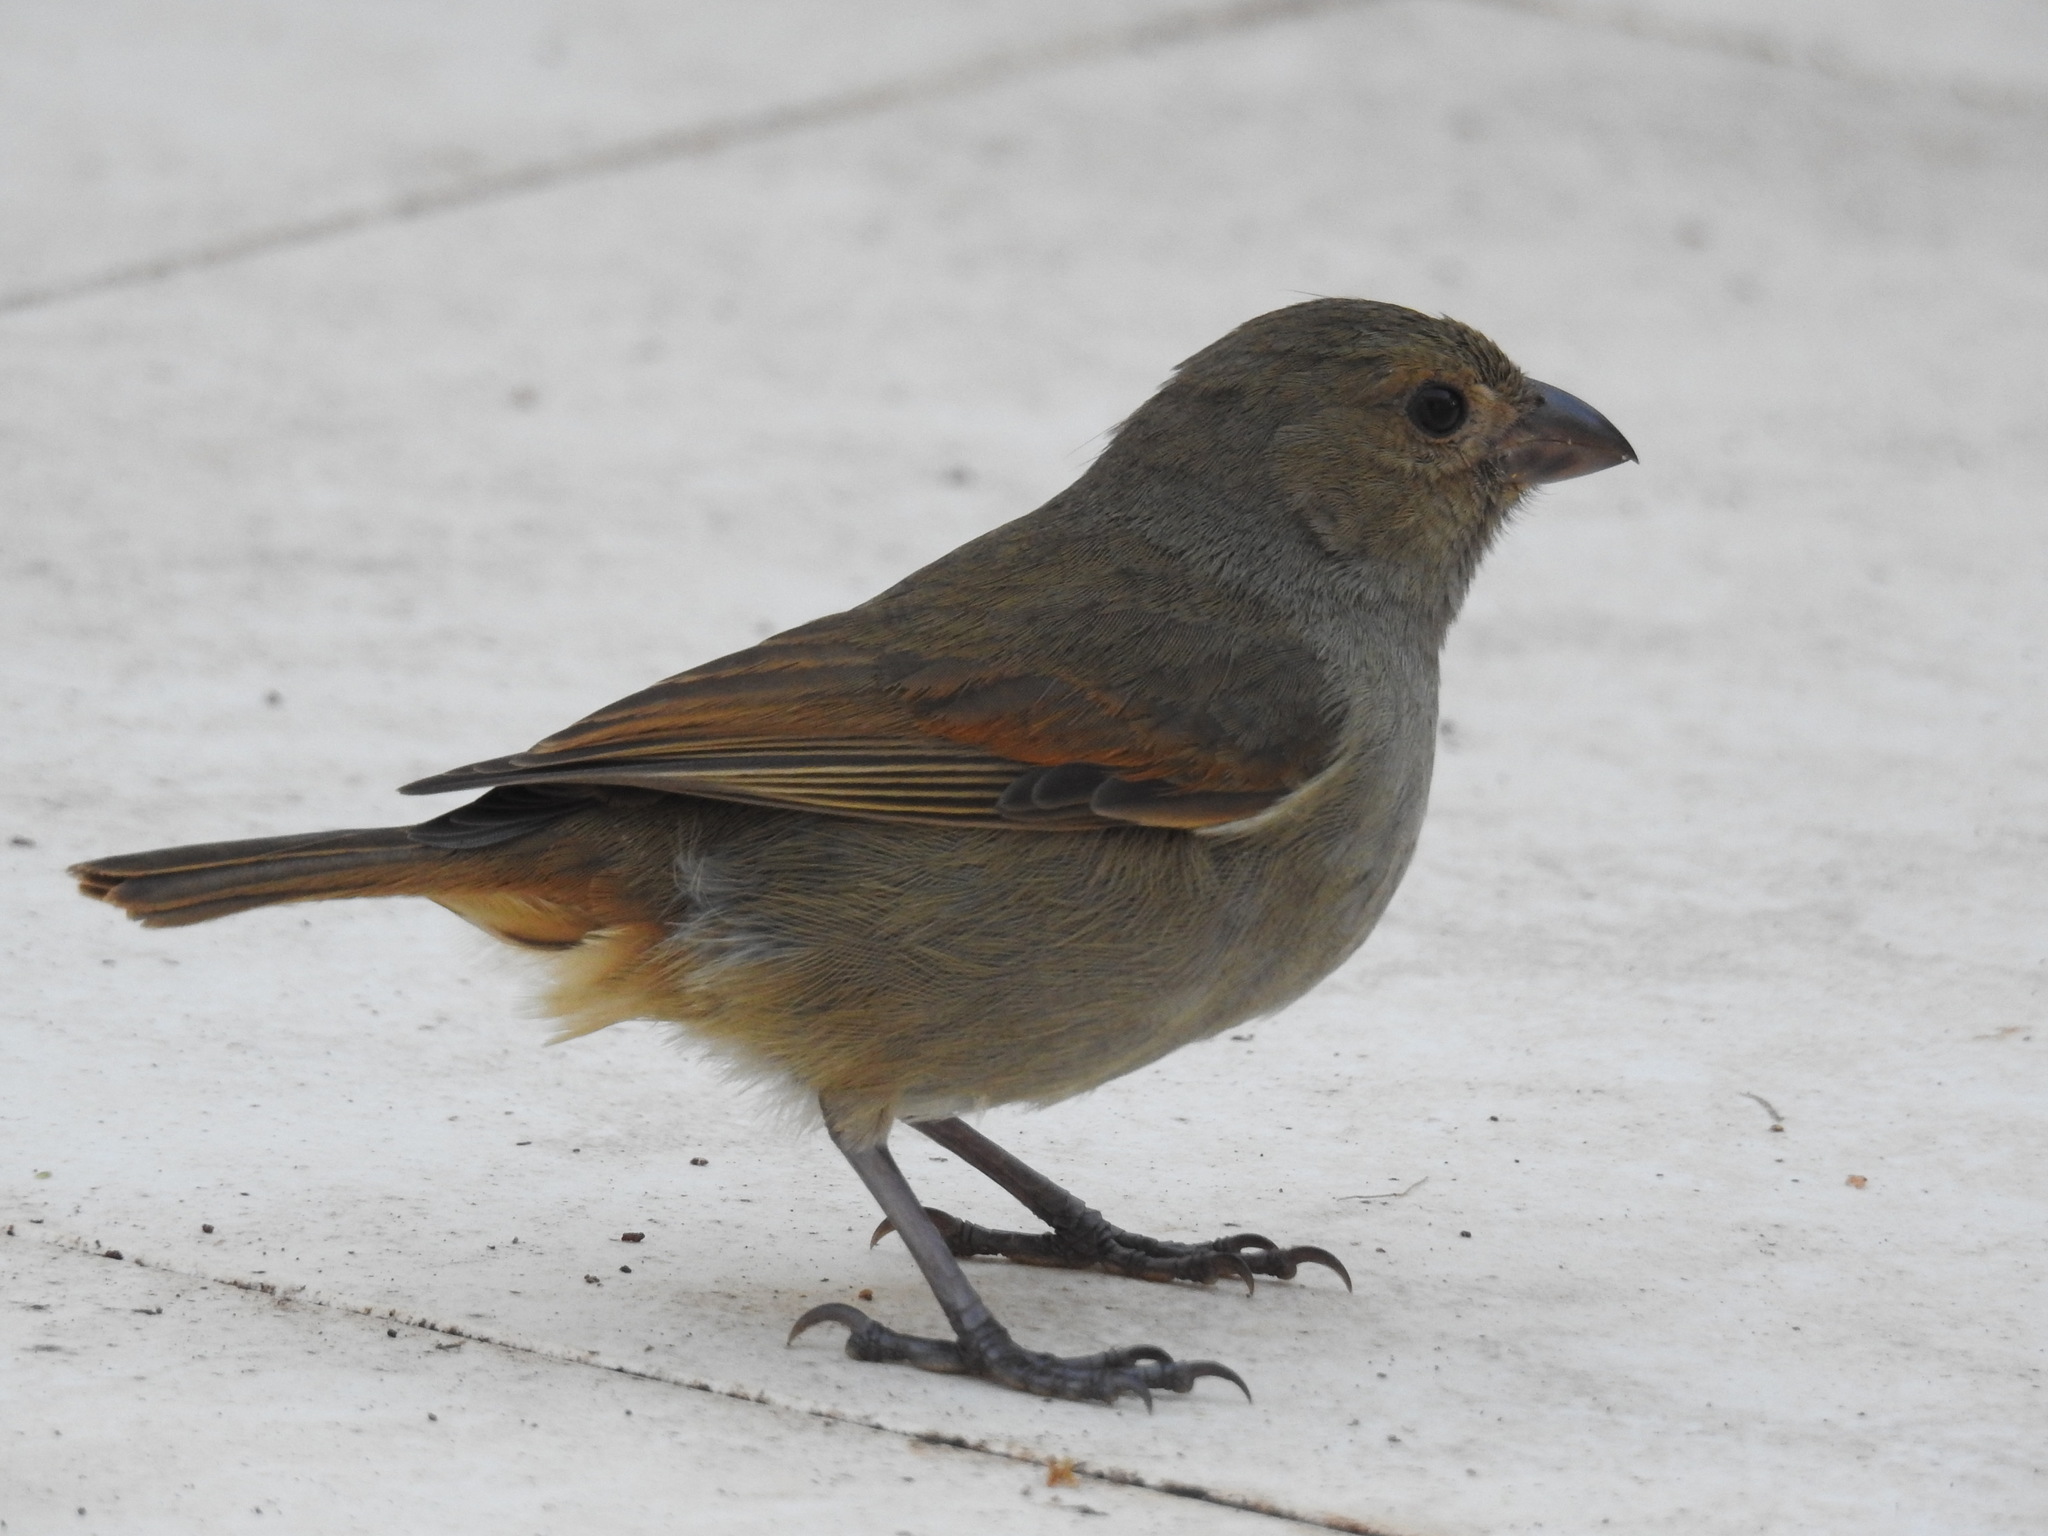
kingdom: Animalia
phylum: Chordata
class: Aves
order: Passeriformes
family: Thraupidae
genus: Loxigilla
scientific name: Loxigilla barbadensis
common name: Barbados bullfinch
